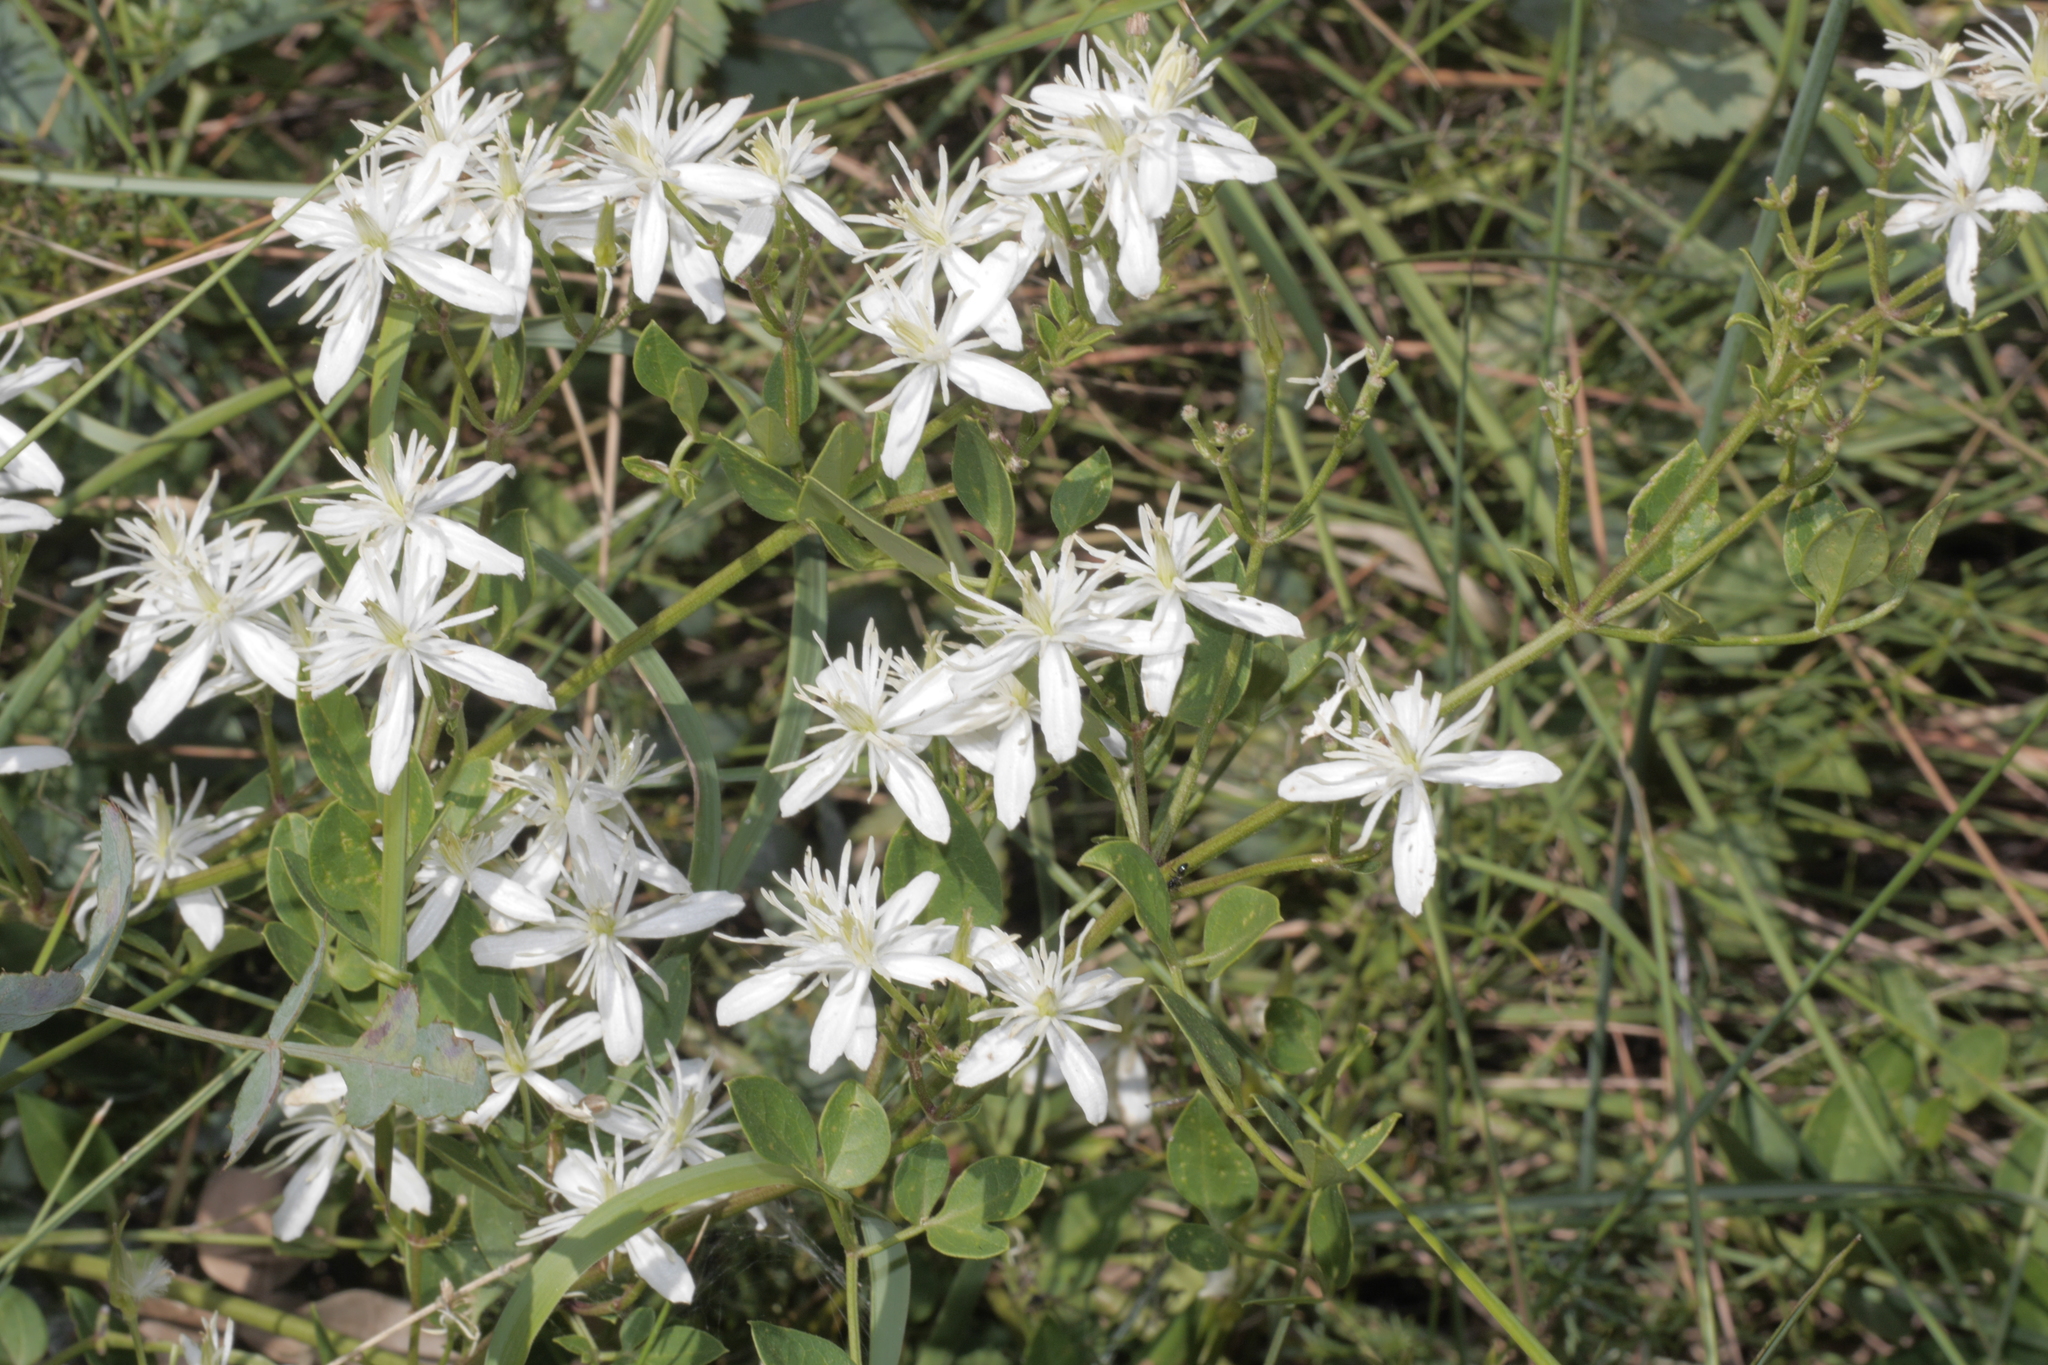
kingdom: Plantae
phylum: Tracheophyta
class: Magnoliopsida
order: Ranunculales
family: Ranunculaceae
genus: Clematis
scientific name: Clematis flammula
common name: Virgin's-bower
